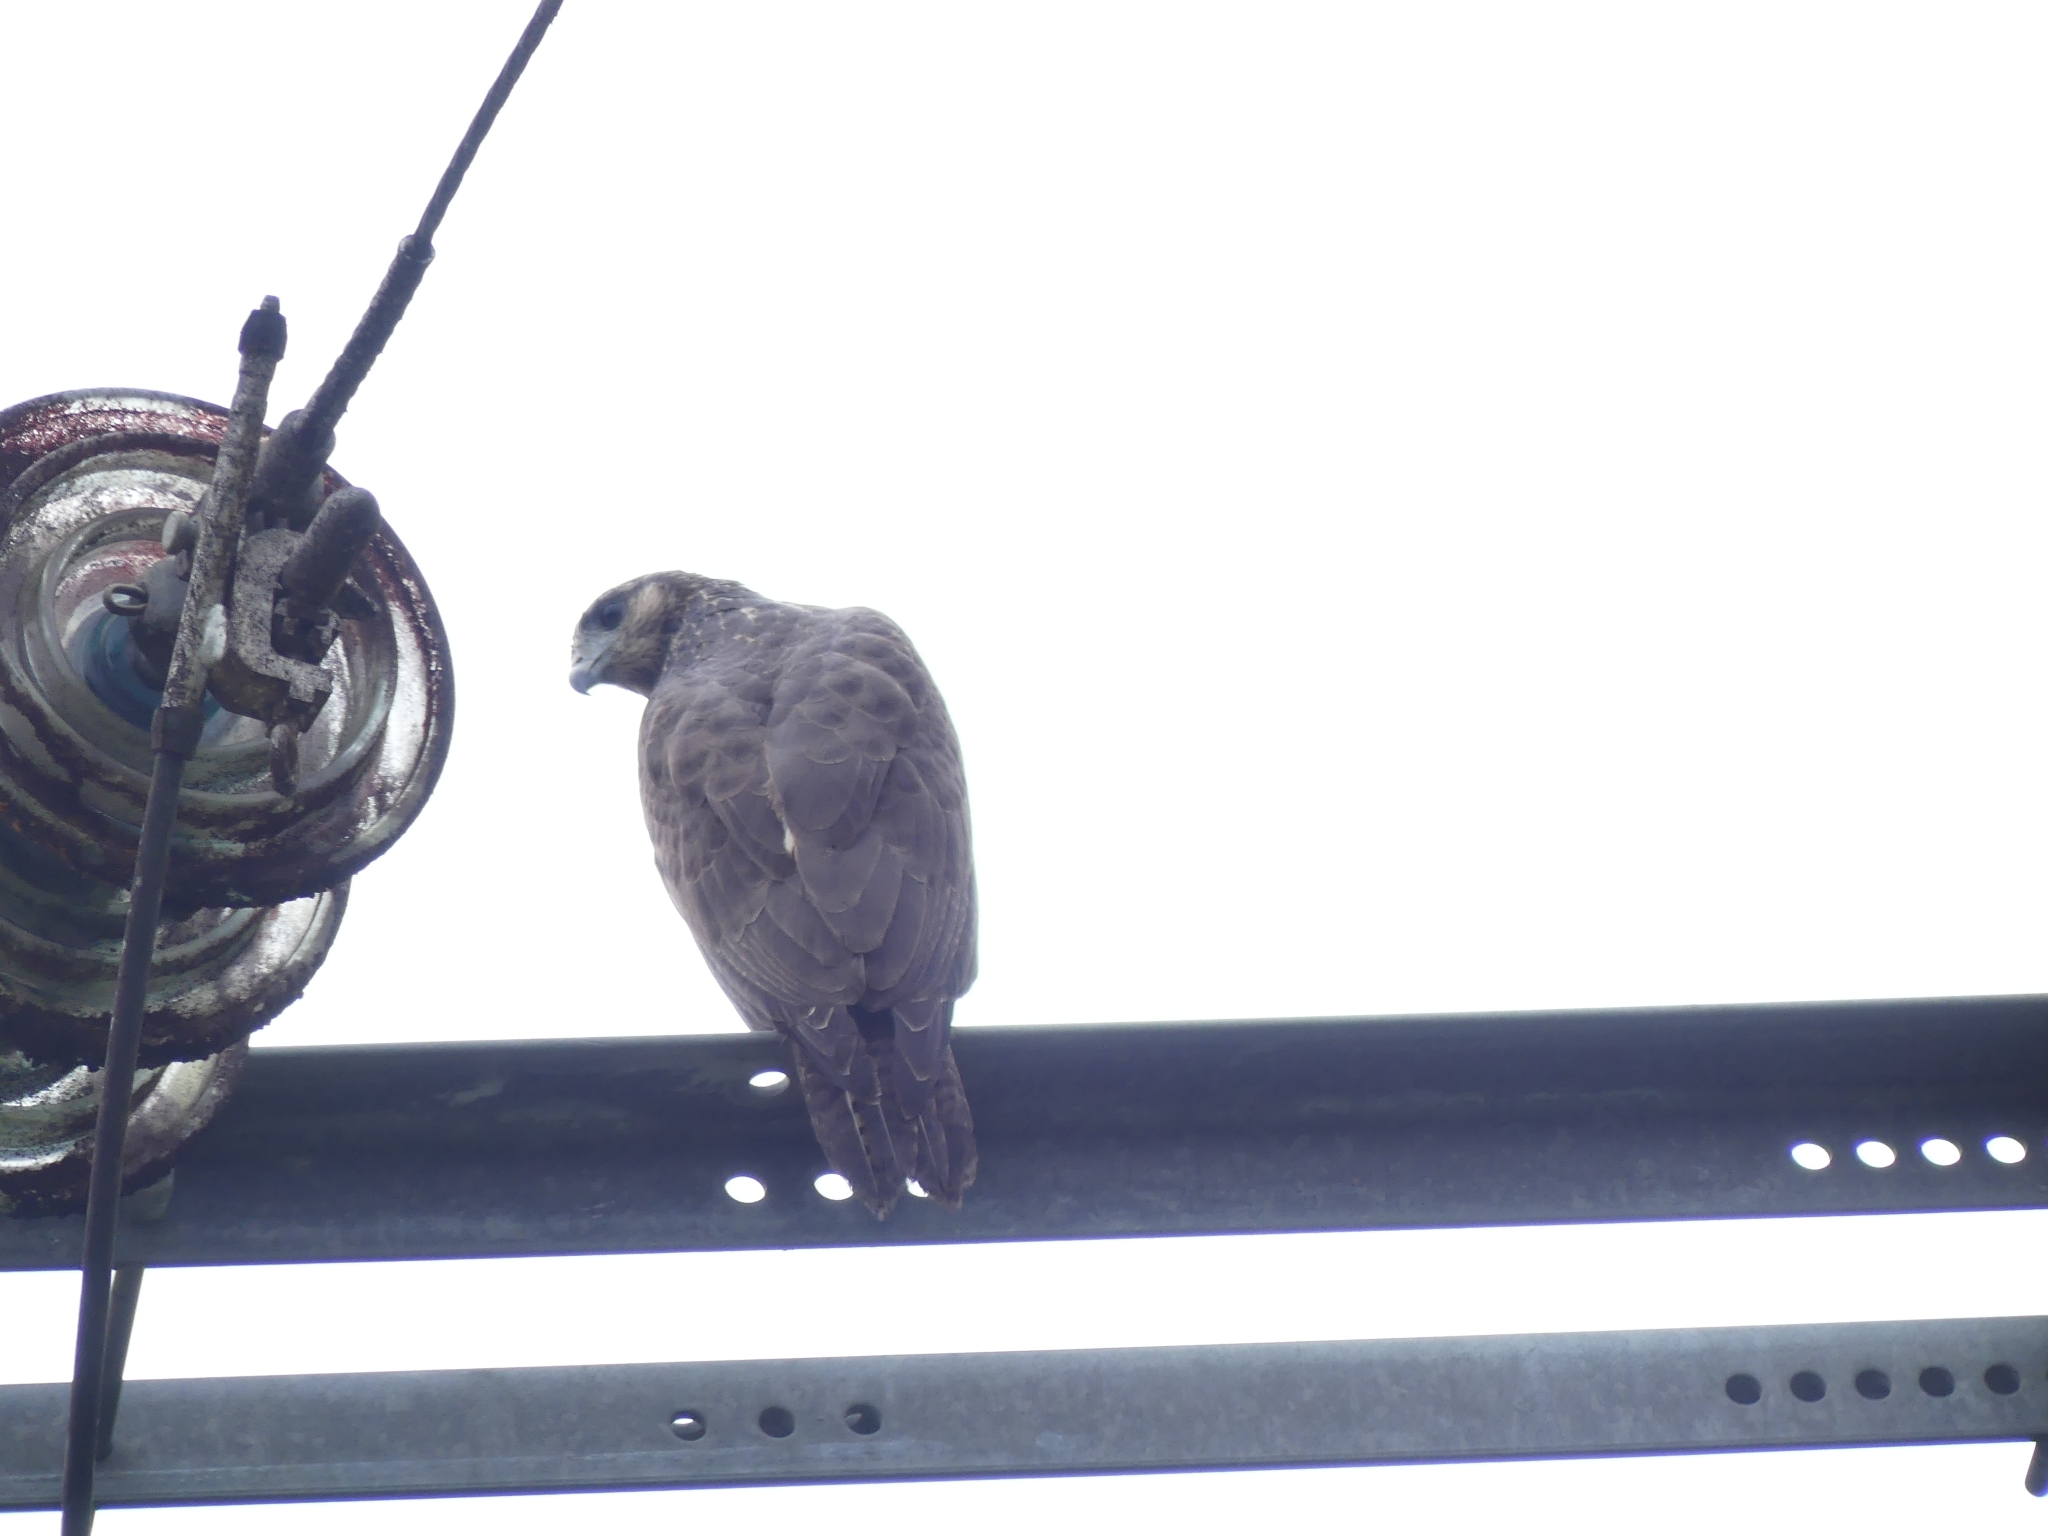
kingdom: Animalia
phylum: Chordata
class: Aves
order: Accipitriformes
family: Accipitridae
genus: Buteogallus
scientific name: Buteogallus aequinoctialis
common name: Rufous crab hawk
